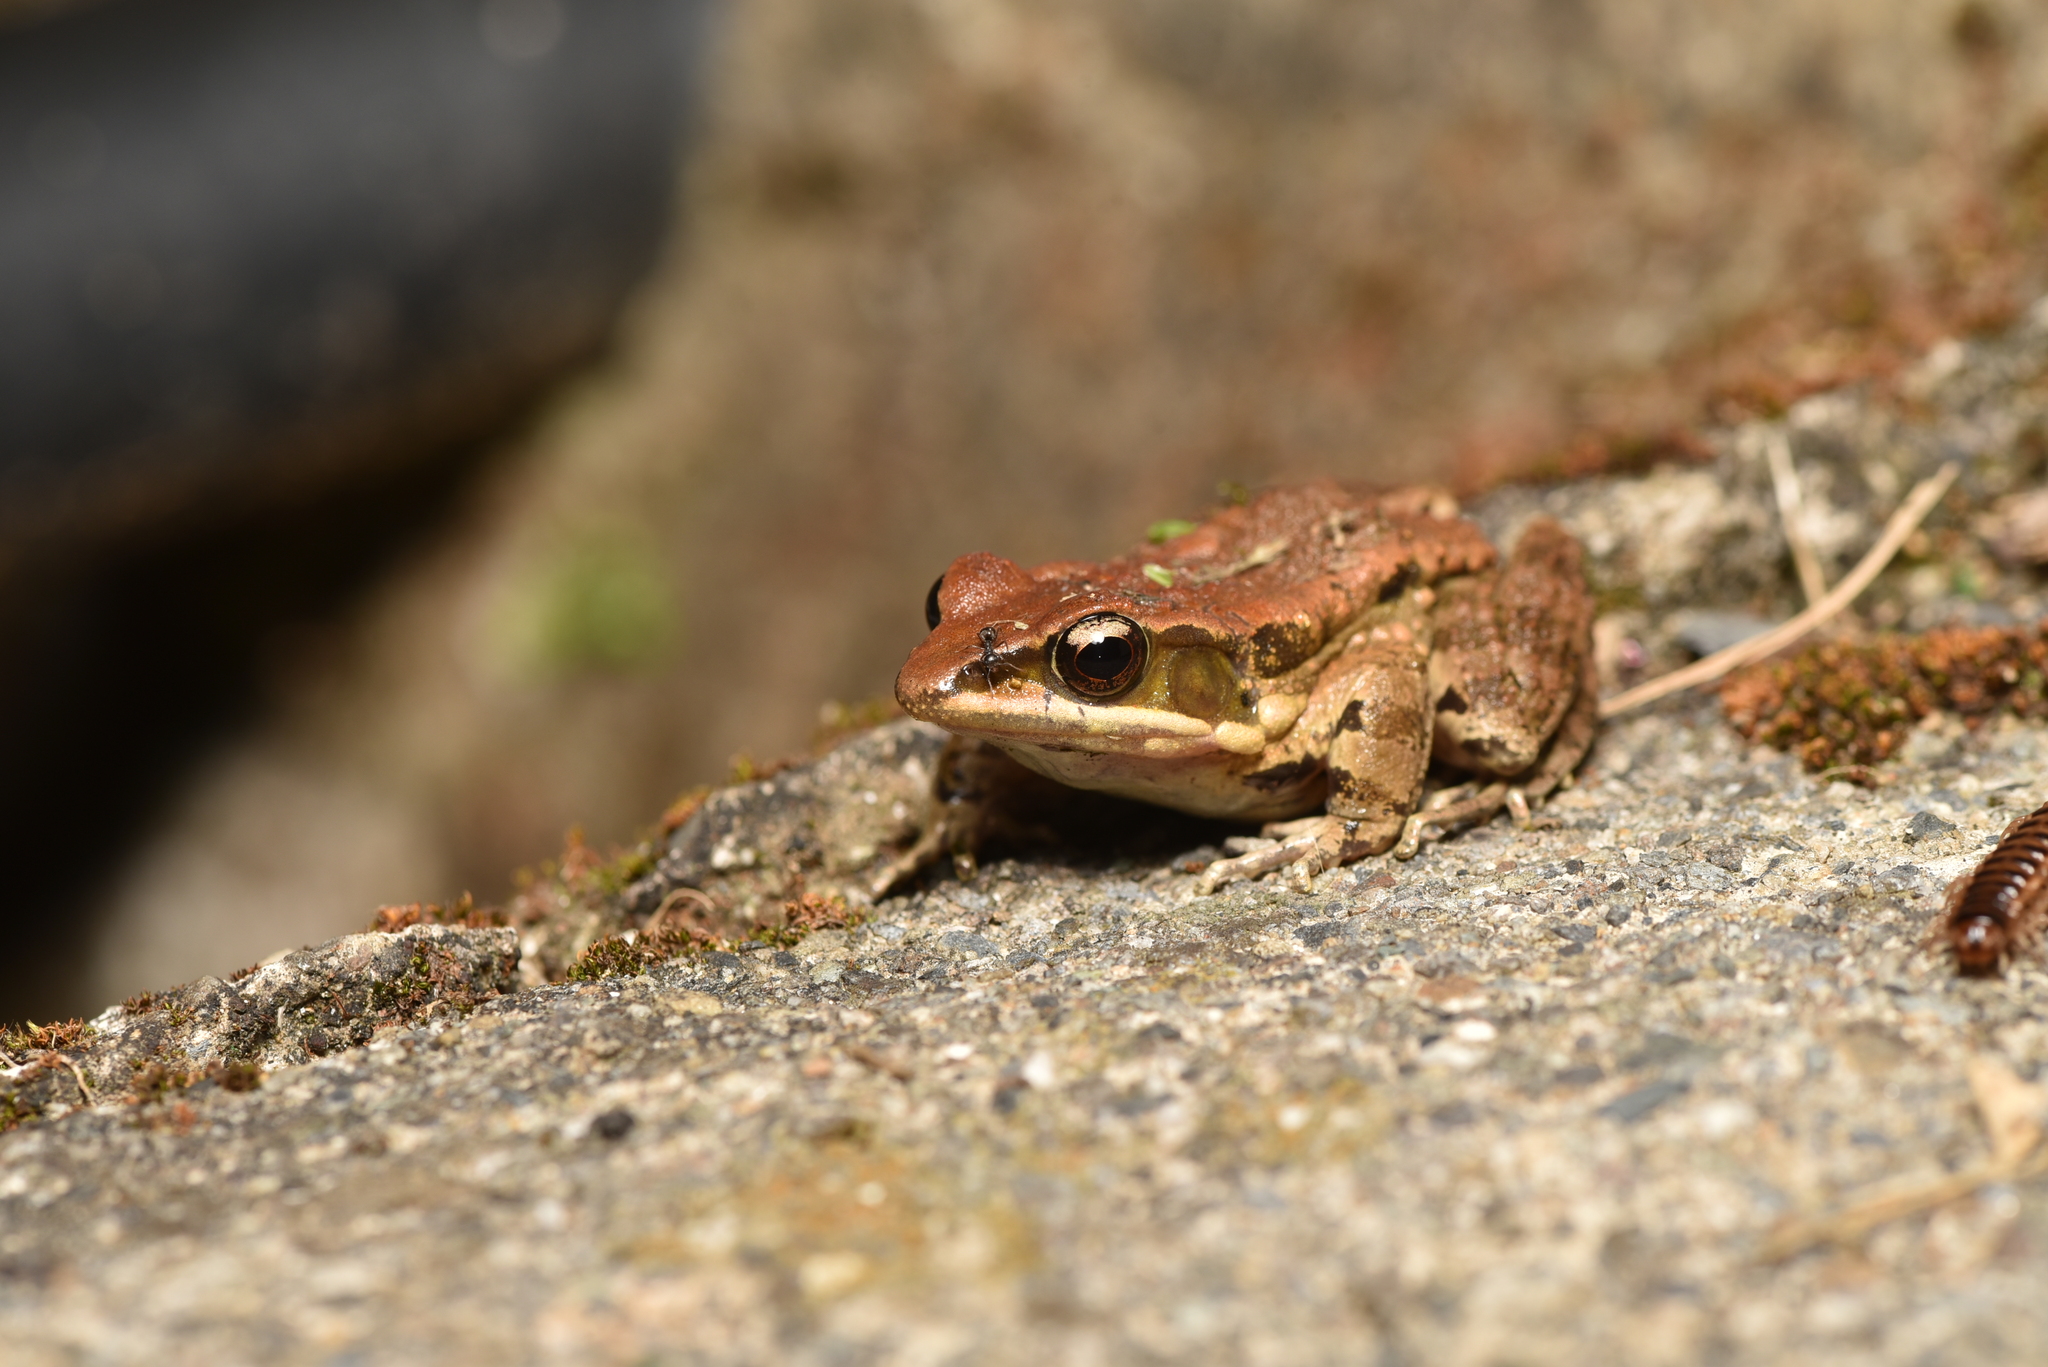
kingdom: Animalia
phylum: Chordata
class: Amphibia
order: Anura
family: Ranidae
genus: Hylarana
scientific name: Hylarana latouchii
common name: Broad-folded frog
